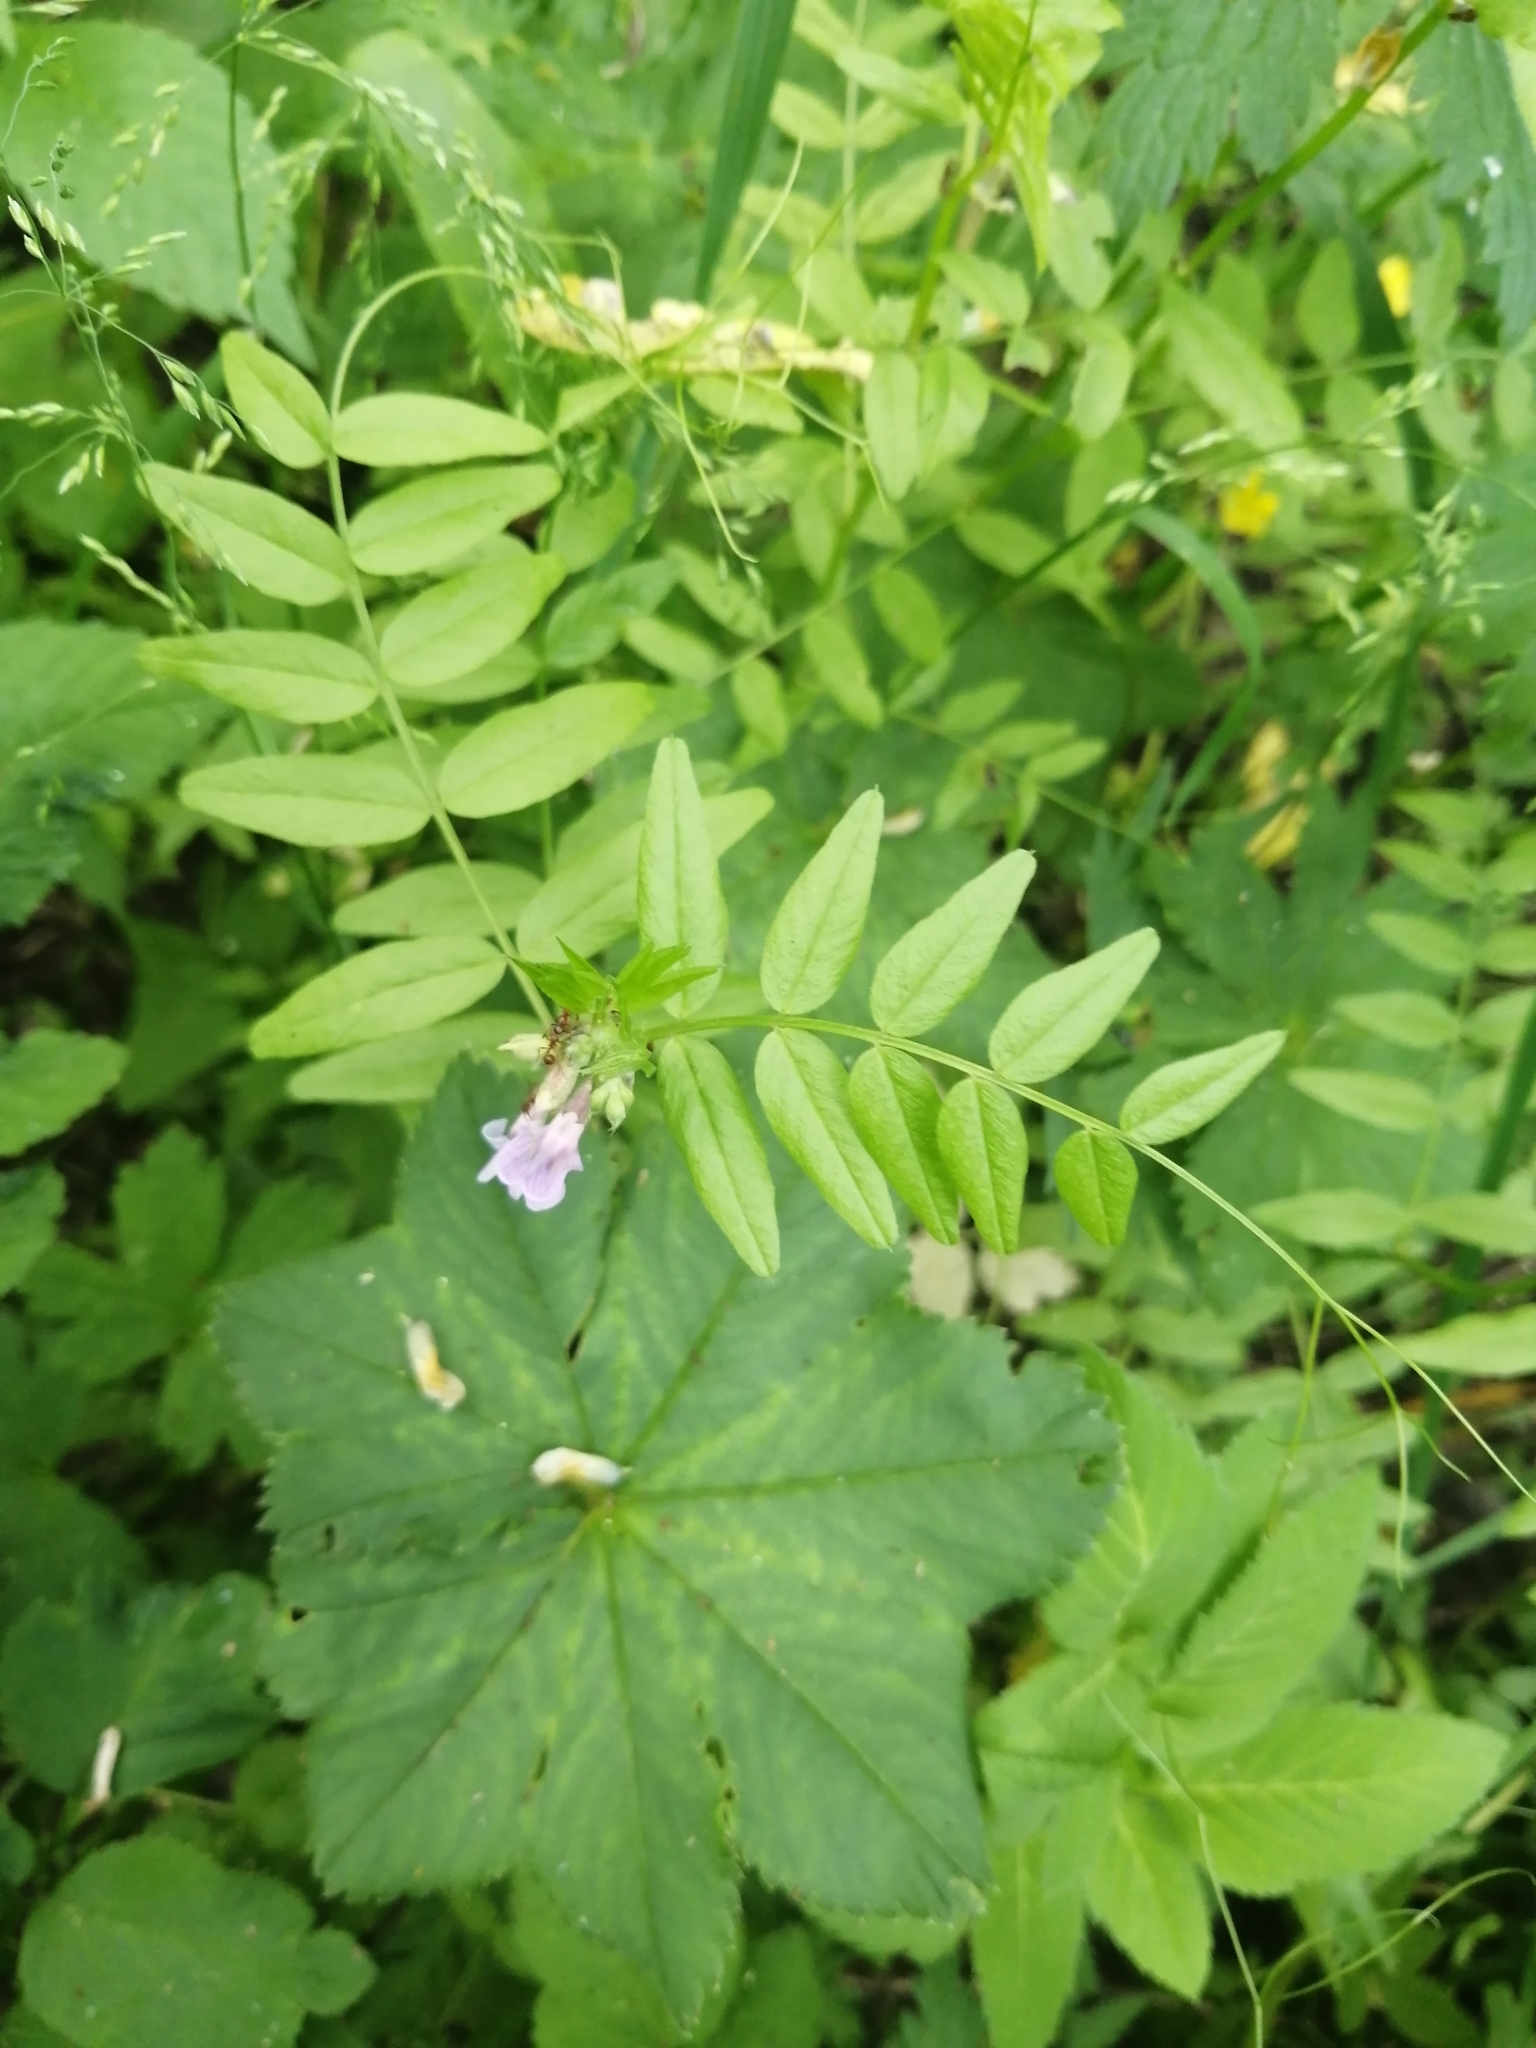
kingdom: Plantae
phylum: Tracheophyta
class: Magnoliopsida
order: Fabales
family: Fabaceae
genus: Vicia
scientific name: Vicia sepium
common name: Bush vetch
